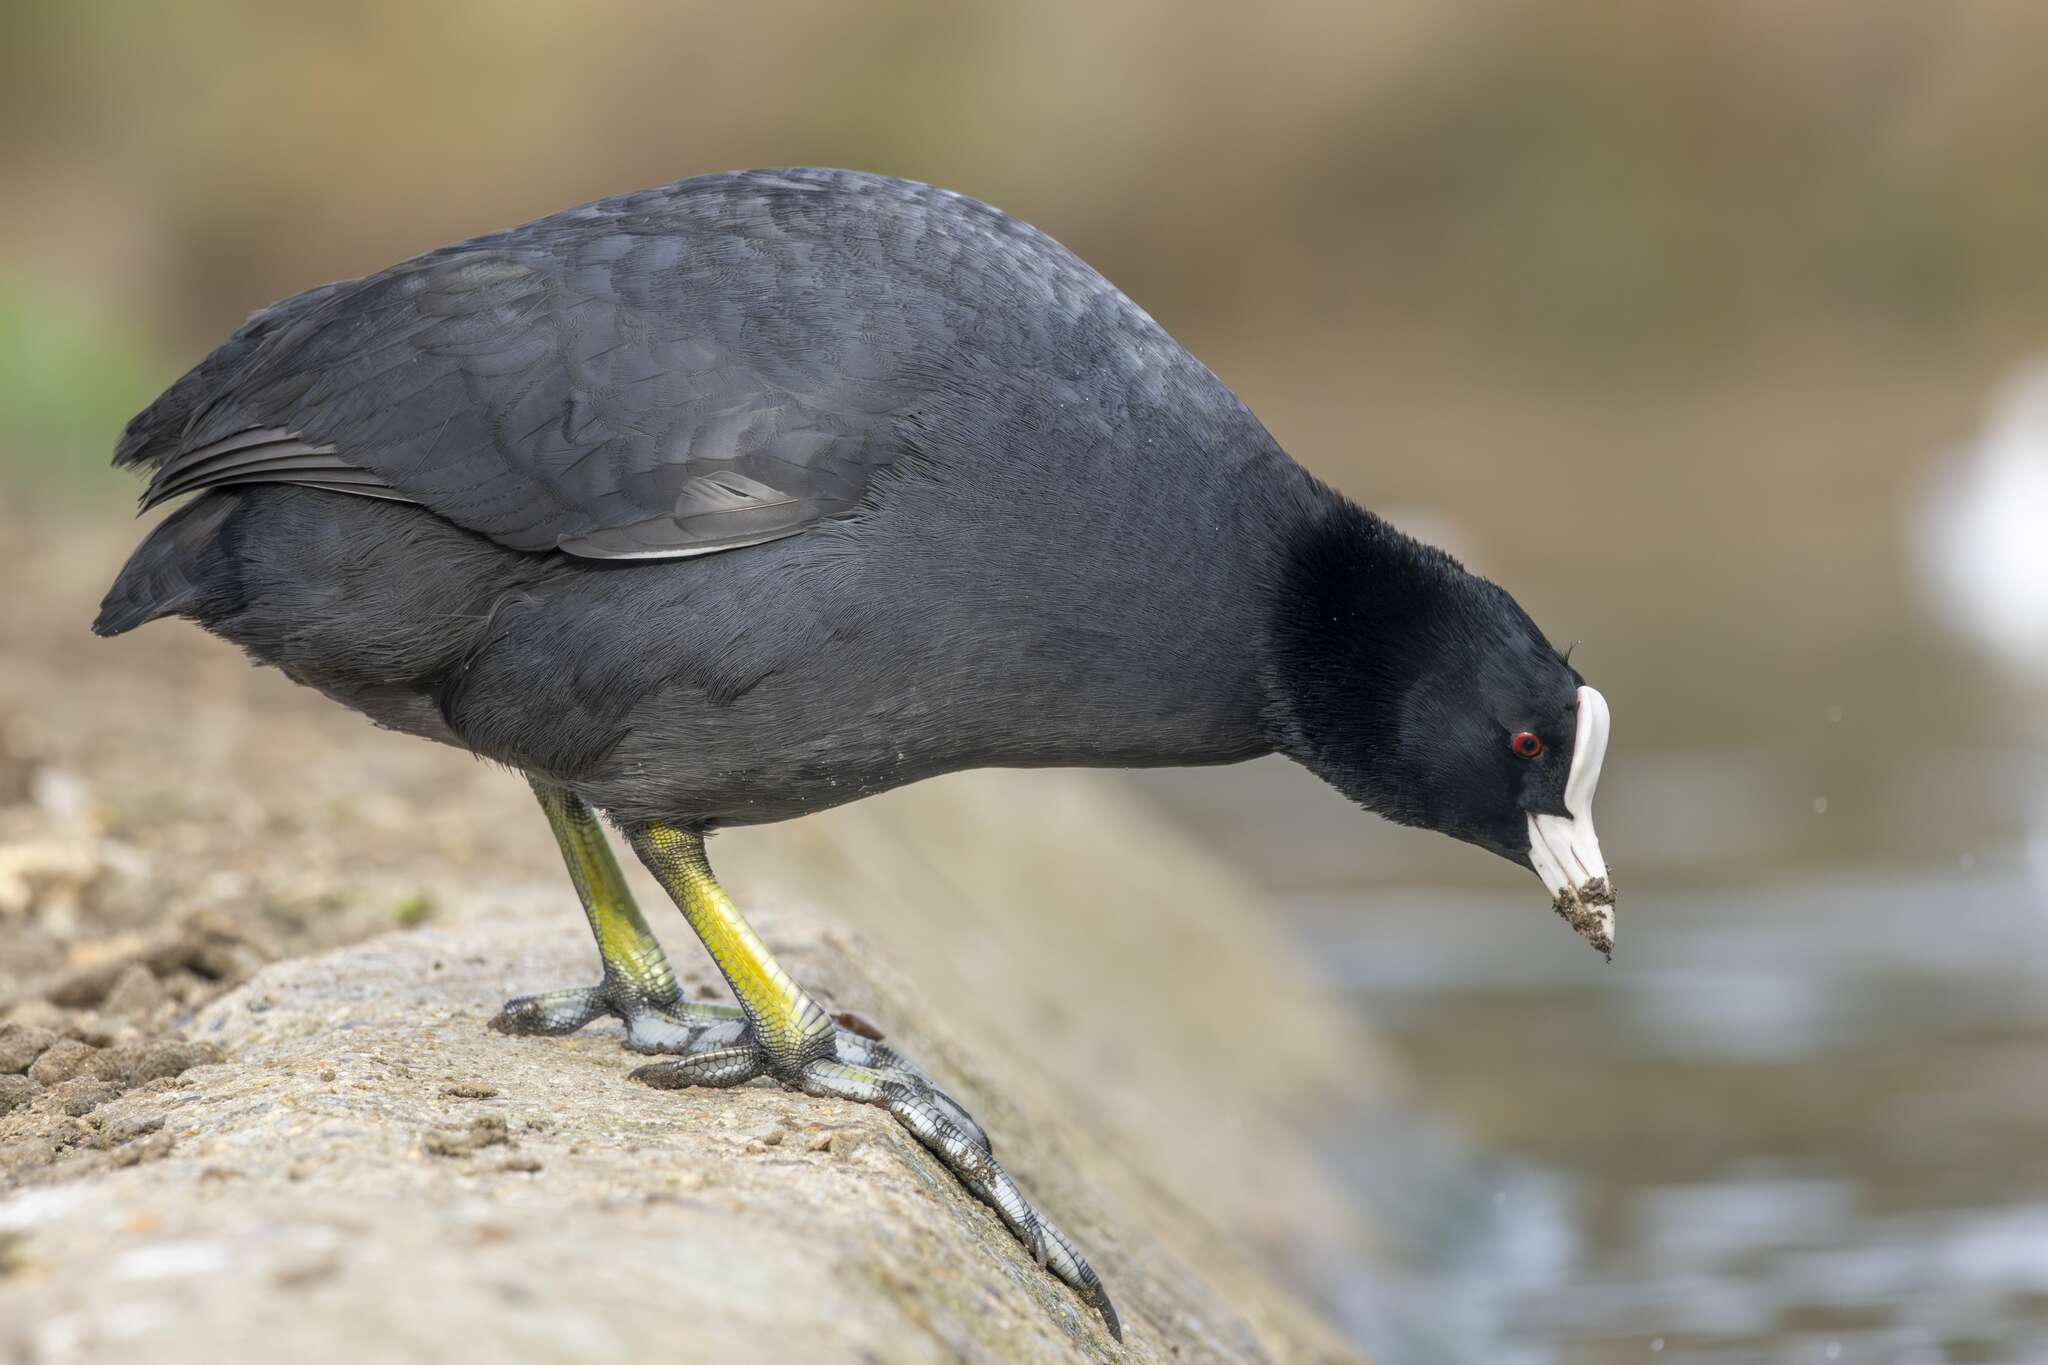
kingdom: Animalia
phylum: Chordata
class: Aves
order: Gruiformes
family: Rallidae
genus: Fulica
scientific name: Fulica atra
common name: Eurasian coot
